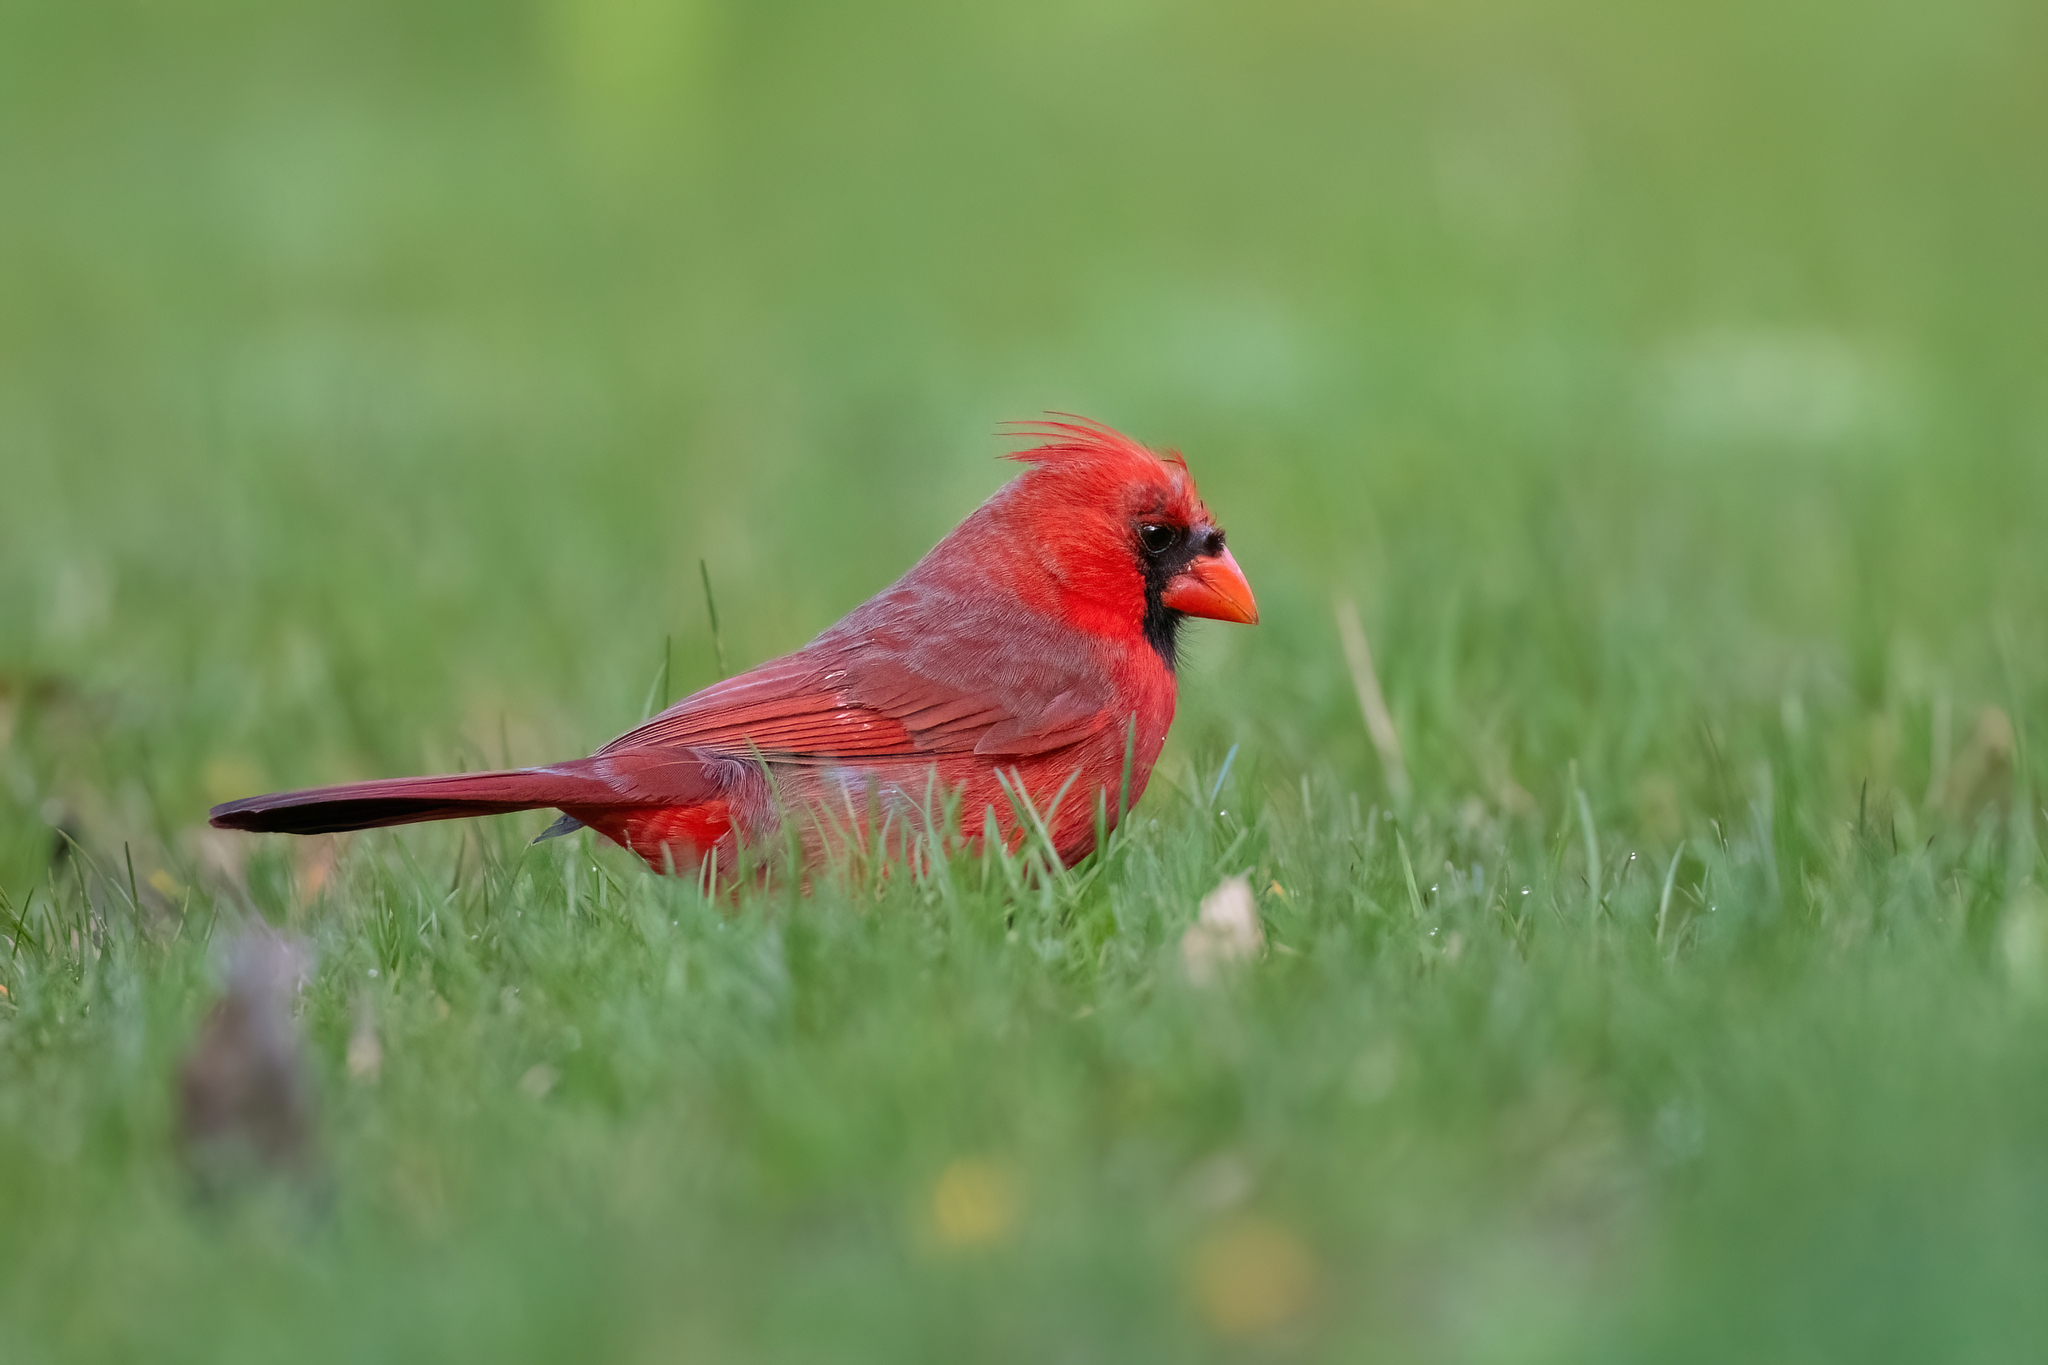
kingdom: Animalia
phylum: Chordata
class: Aves
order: Passeriformes
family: Cardinalidae
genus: Cardinalis
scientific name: Cardinalis cardinalis
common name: Northern cardinal
